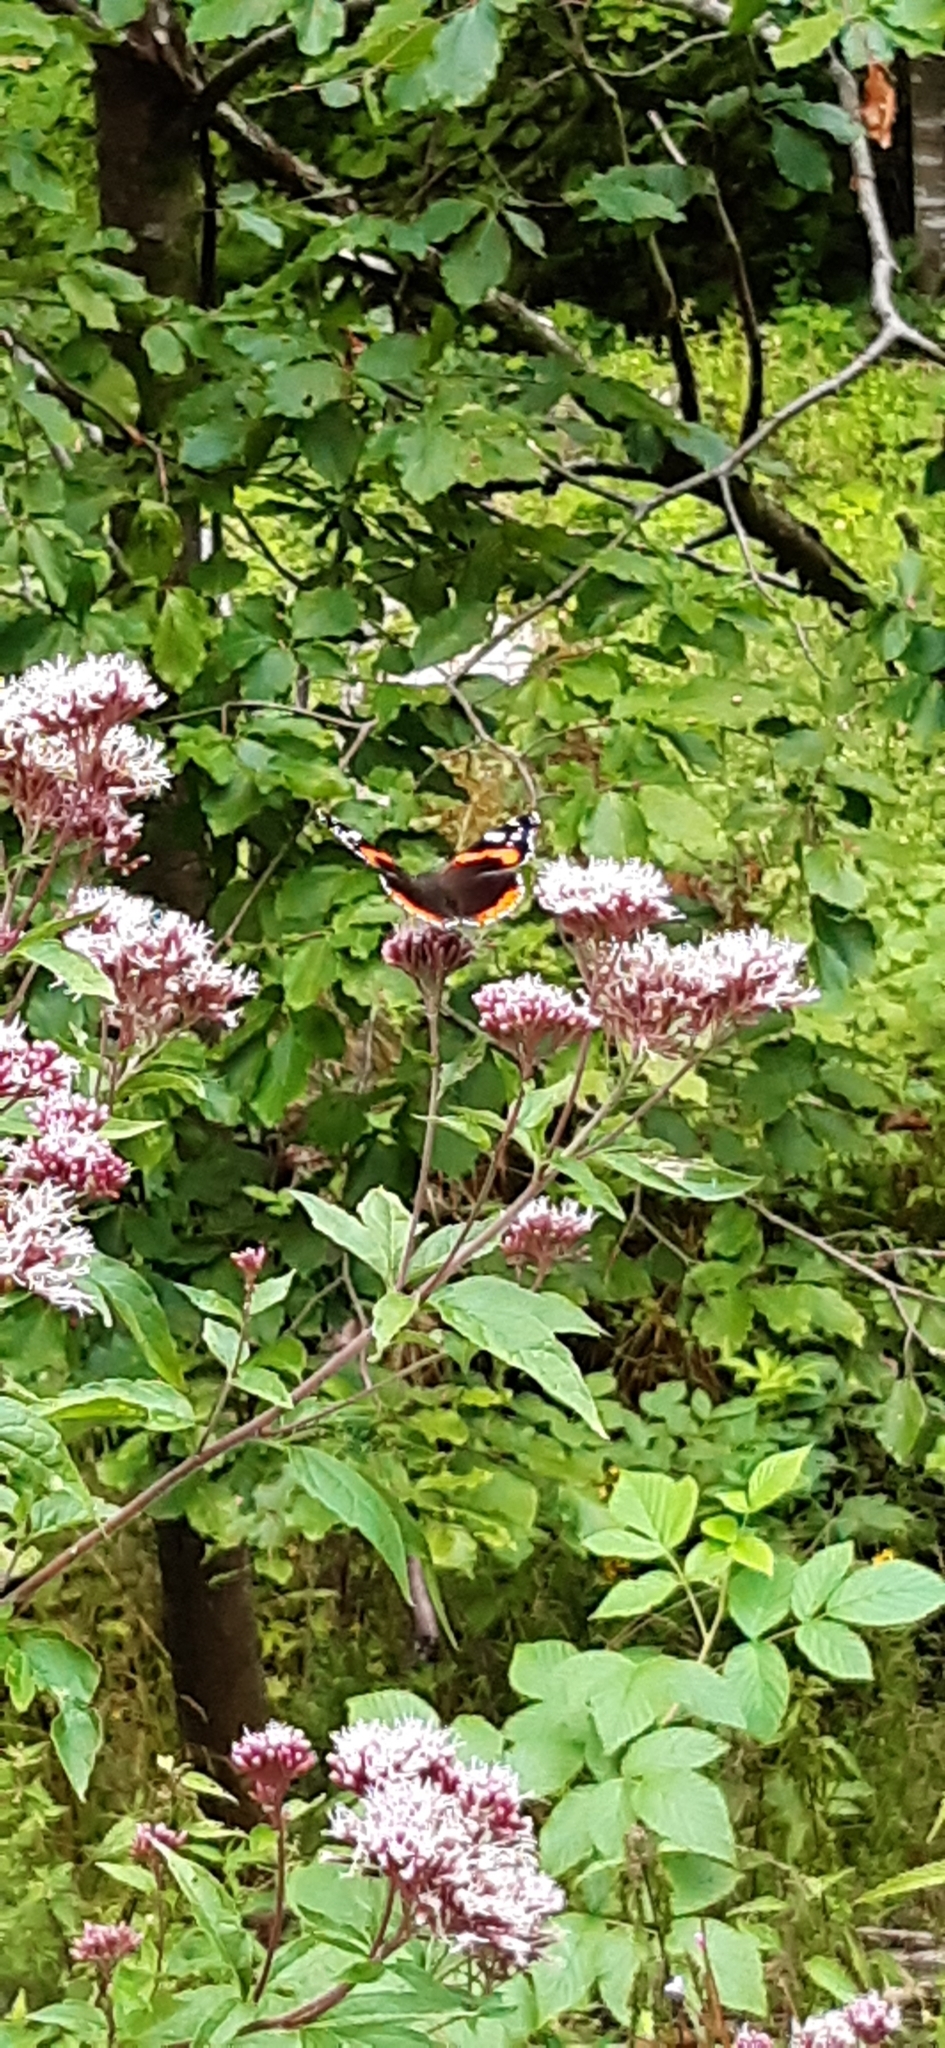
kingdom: Animalia
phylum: Arthropoda
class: Insecta
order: Lepidoptera
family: Nymphalidae
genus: Vanessa
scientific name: Vanessa atalanta
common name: Red admiral
